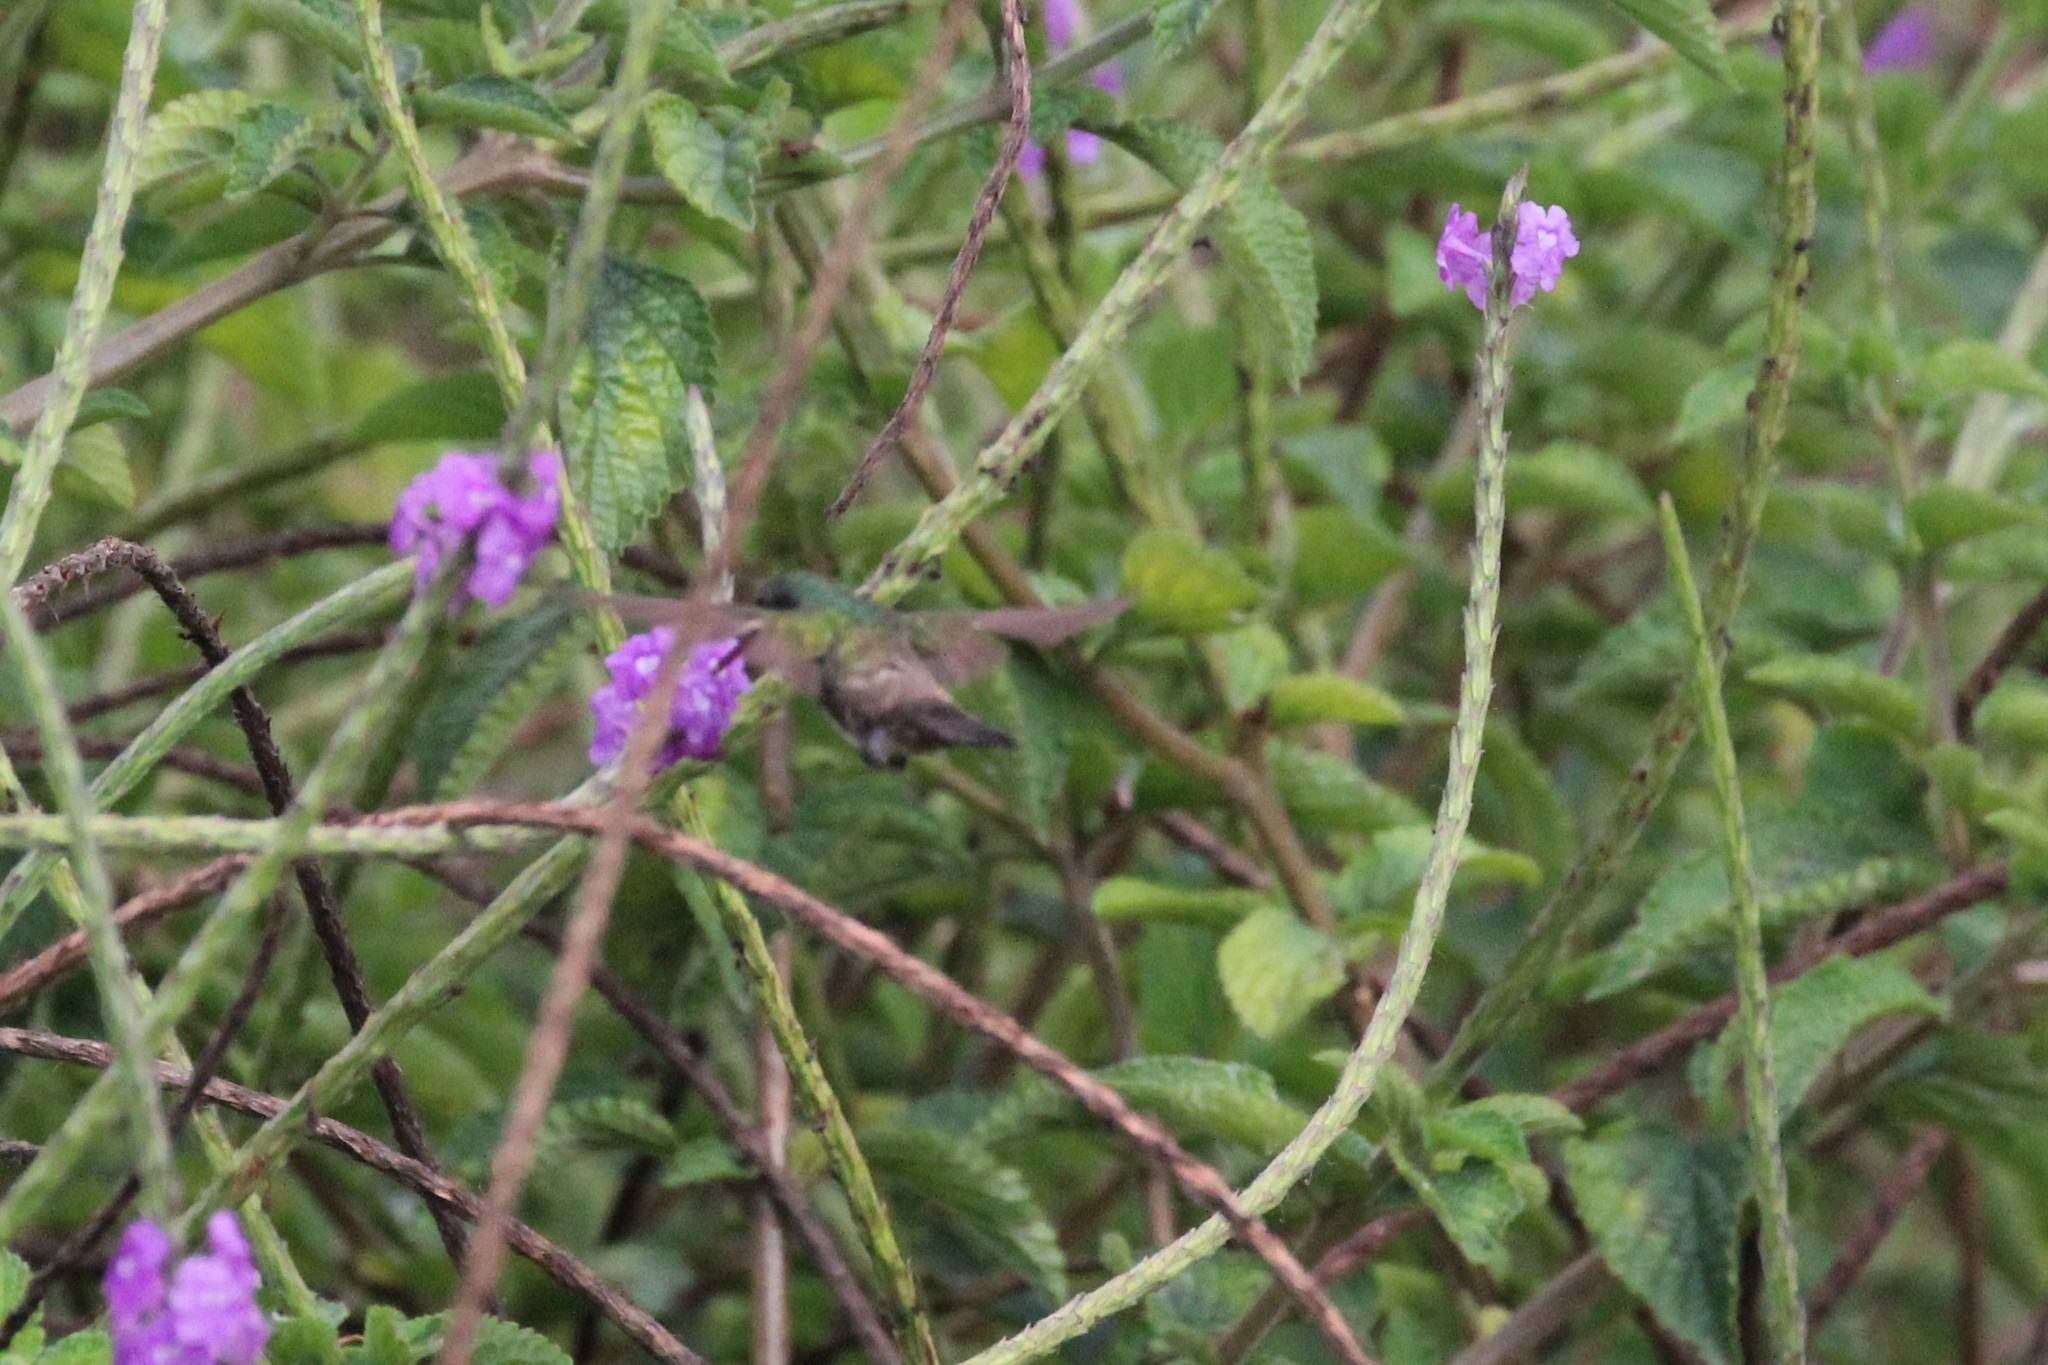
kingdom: Animalia
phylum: Chordata
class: Aves
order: Apodiformes
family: Trochilidae
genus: Saucerottia
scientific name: Saucerottia edward
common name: Snowy-bellied hummingbird
